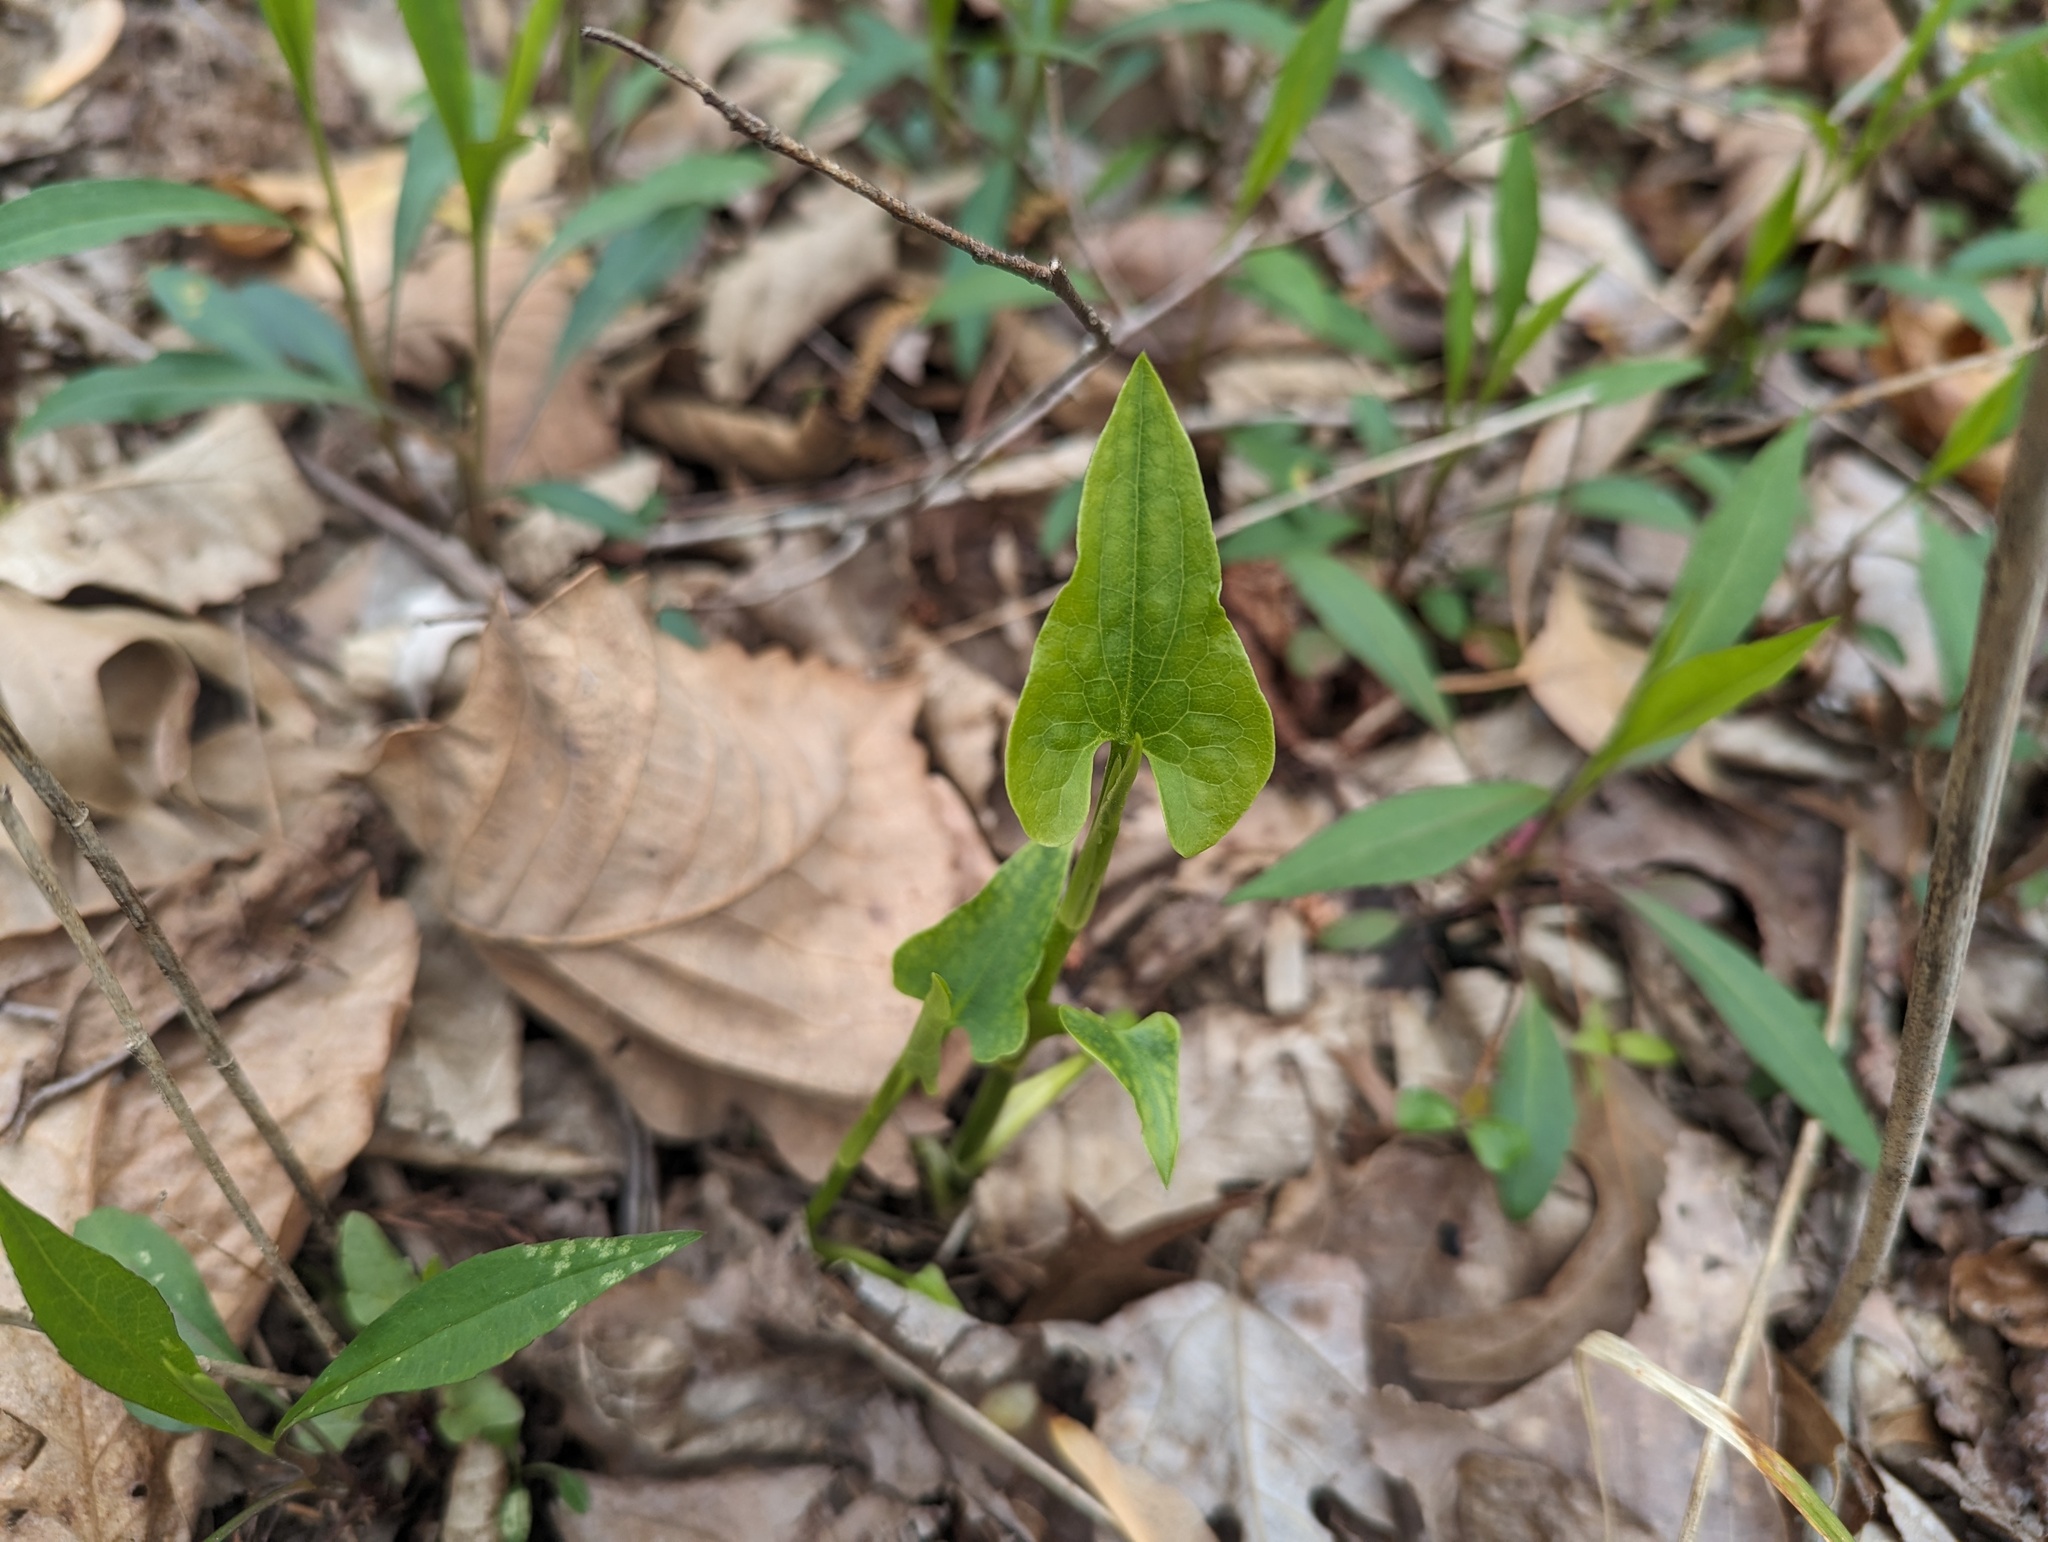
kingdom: Plantae
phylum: Tracheophyta
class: Magnoliopsida
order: Piperales
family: Saururaceae
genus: Saururus
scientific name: Saururus cernuus
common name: Lizard's-tail
